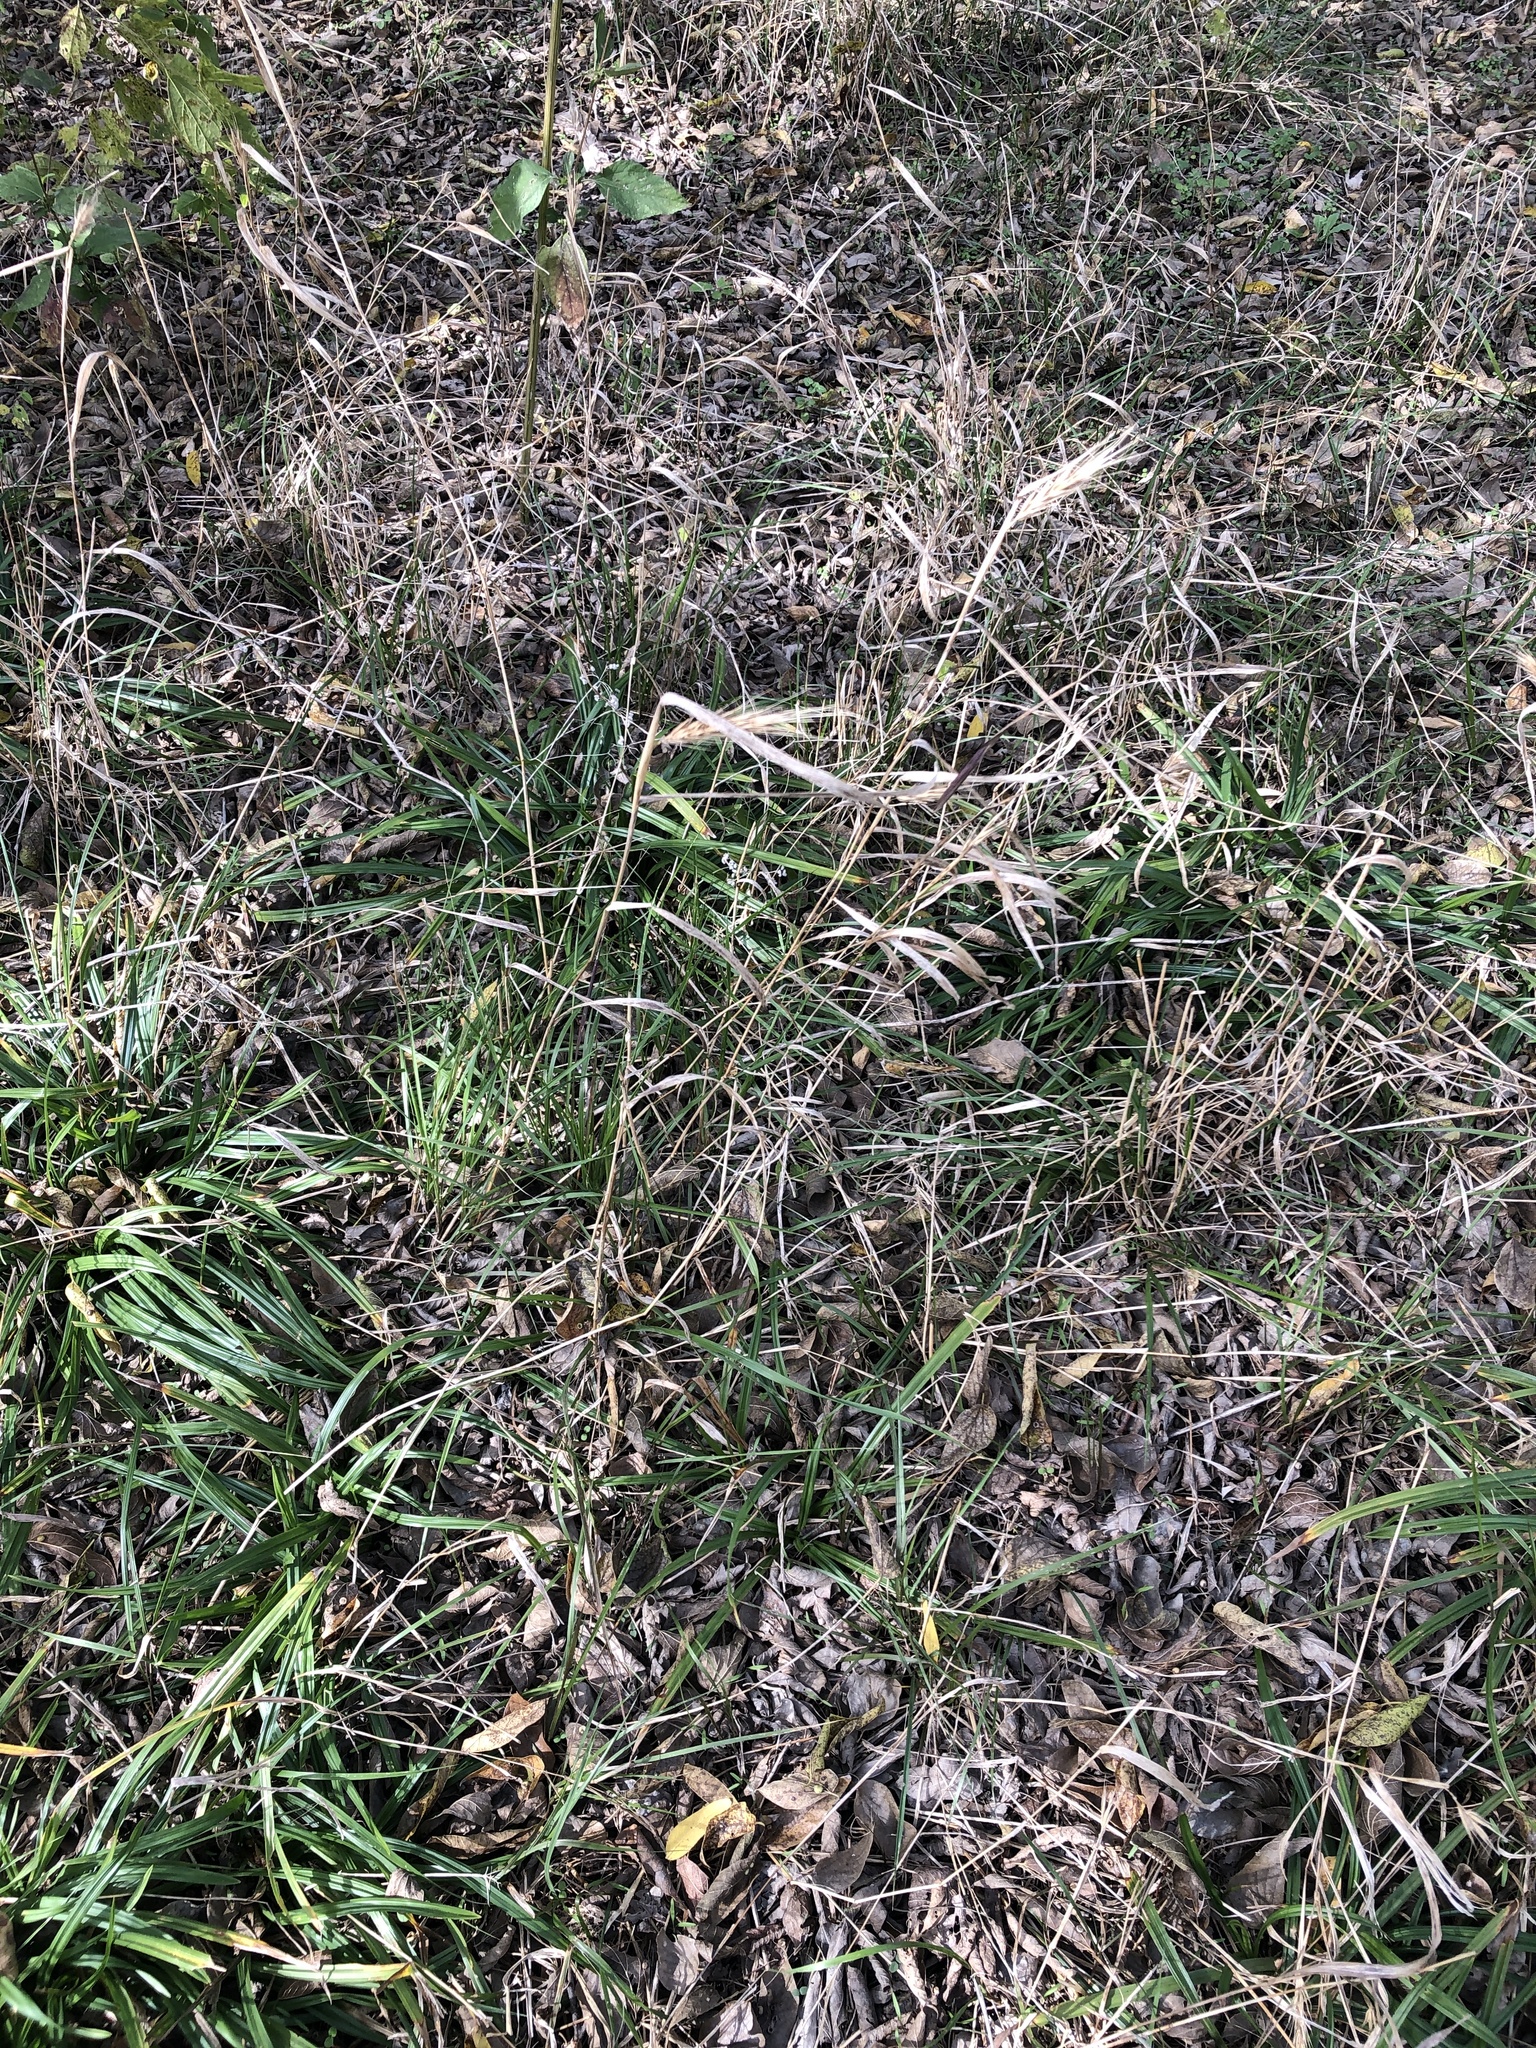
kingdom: Plantae
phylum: Tracheophyta
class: Liliopsida
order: Poales
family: Poaceae
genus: Elymus
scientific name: Elymus virginicus
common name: Common eastern wildrye
